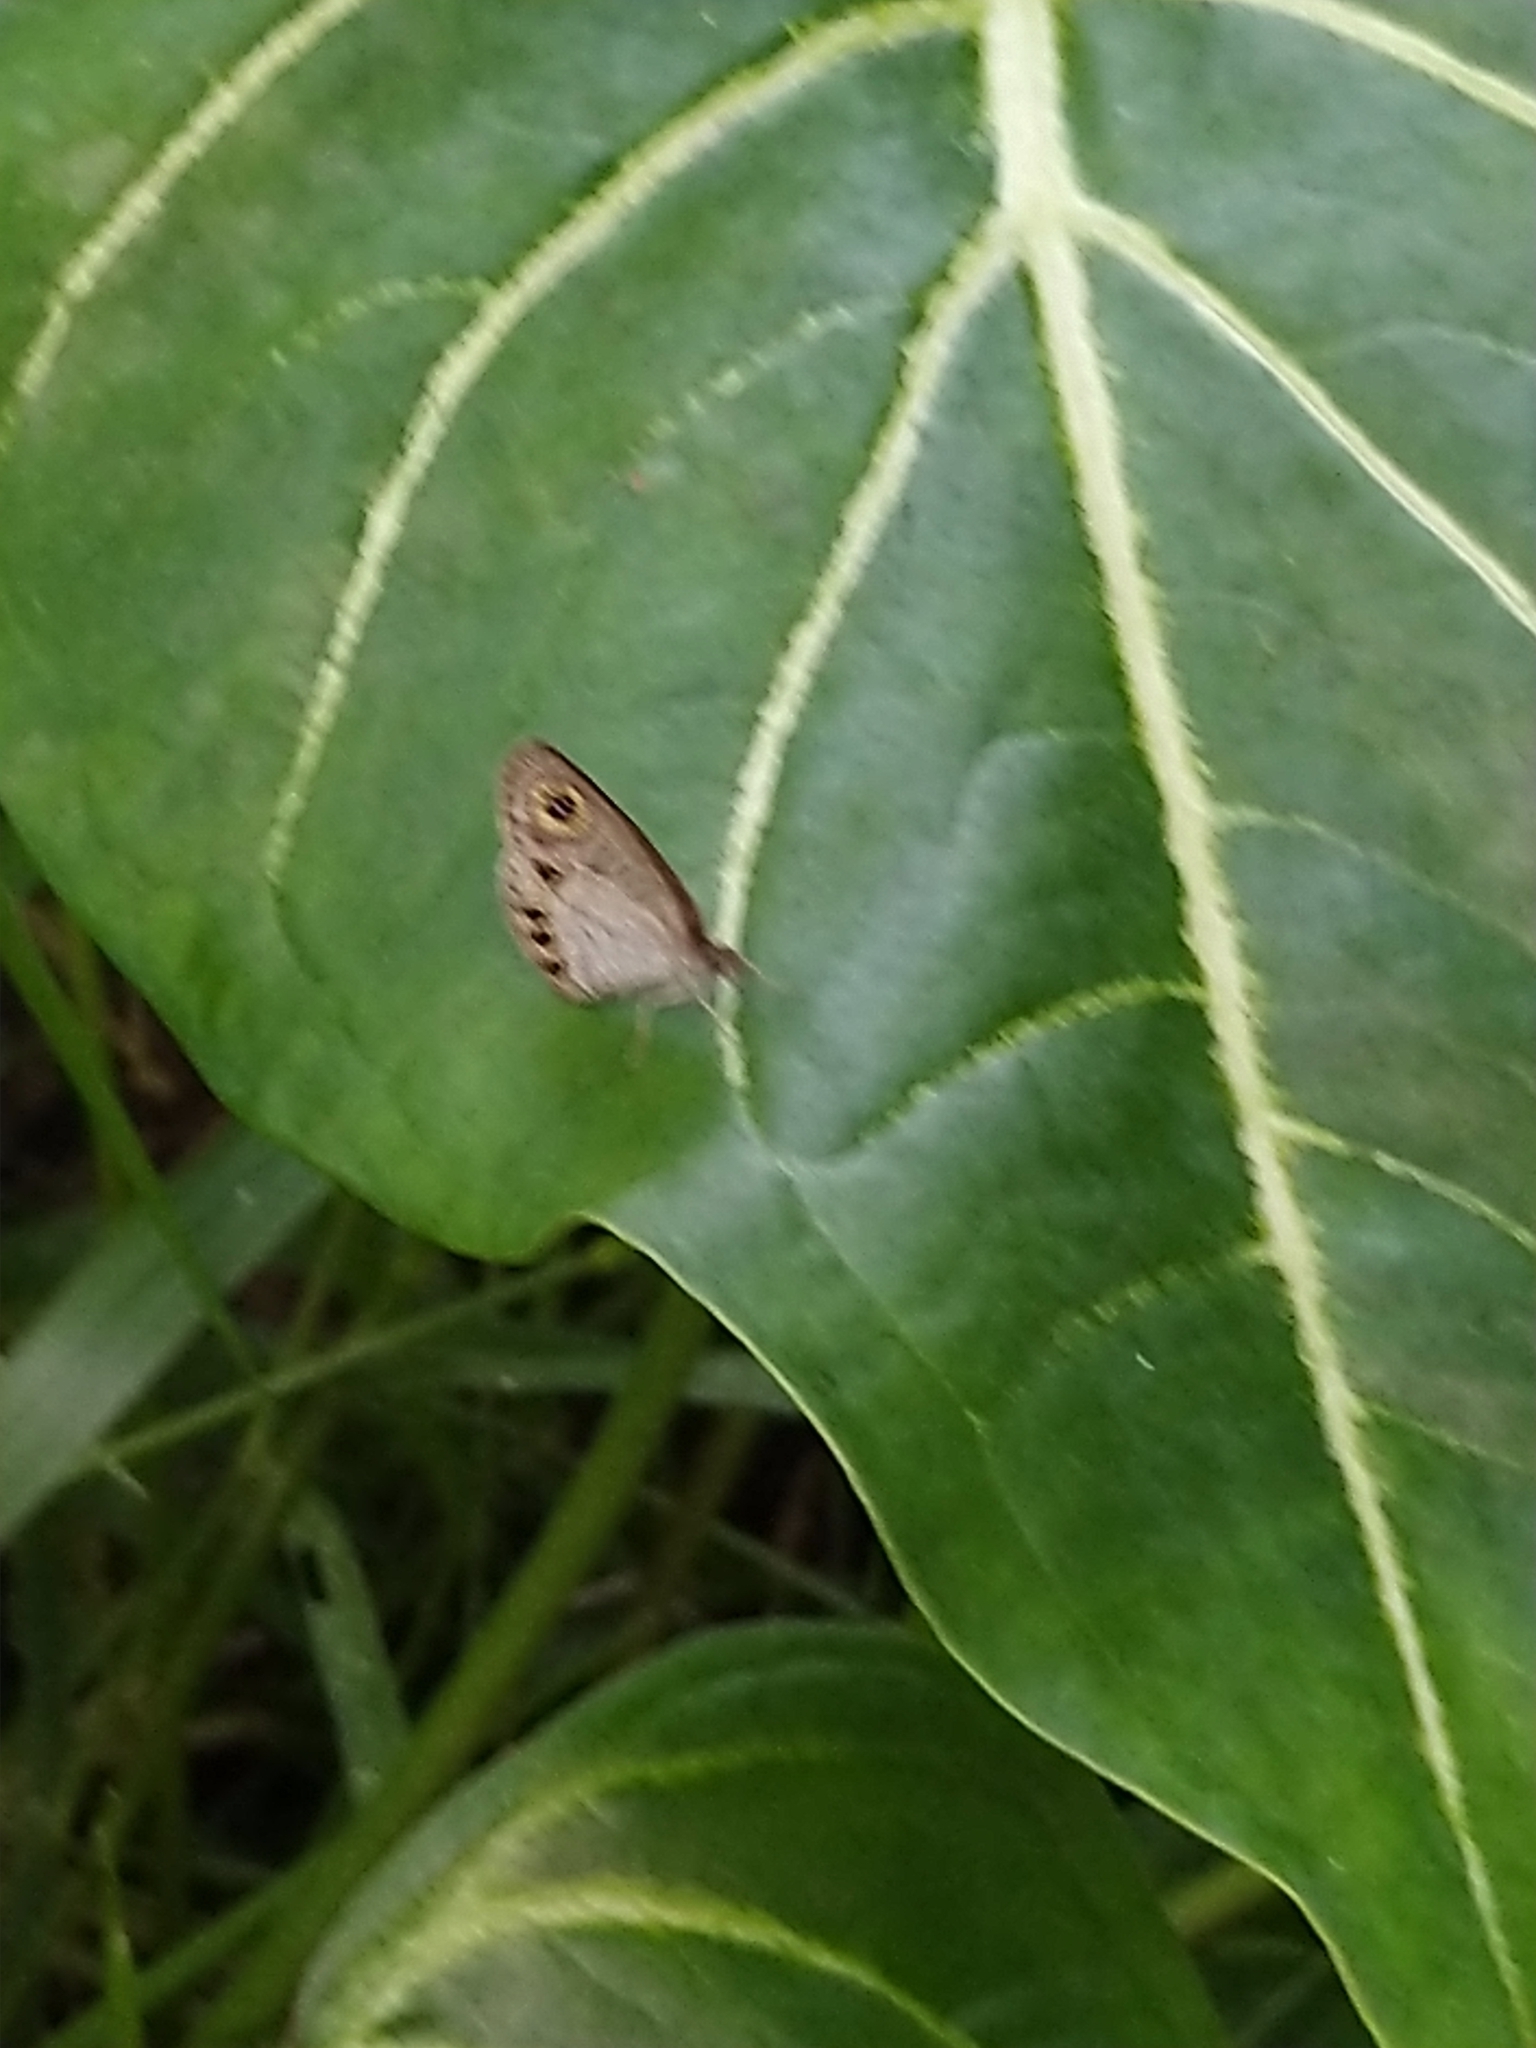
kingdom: Animalia
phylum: Arthropoda
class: Insecta
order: Lepidoptera
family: Nymphalidae
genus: Ypthima
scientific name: Ypthima huebneri
